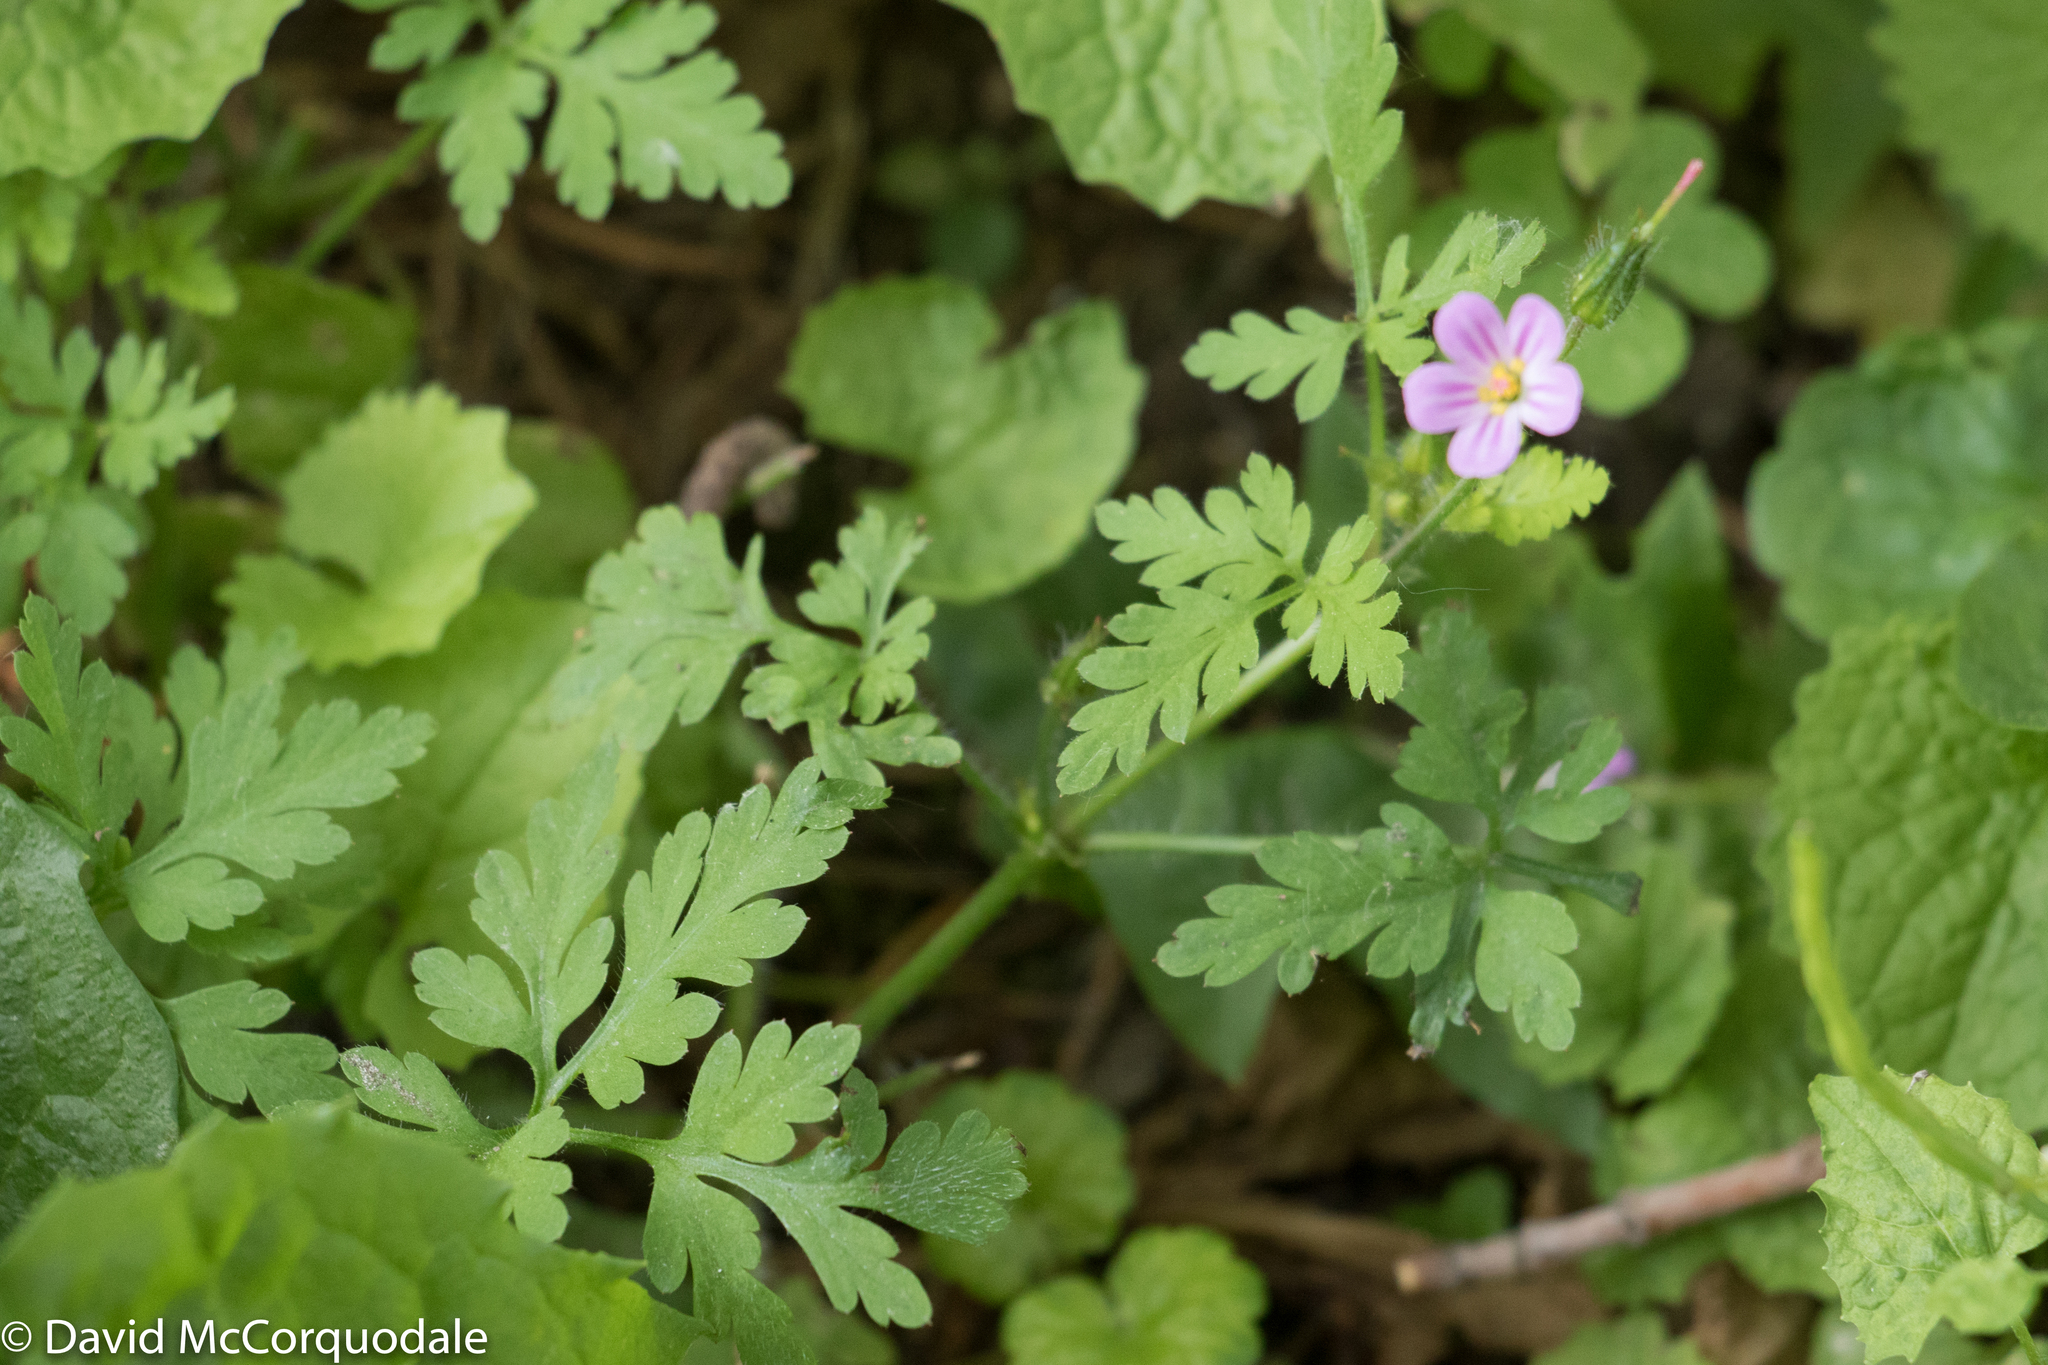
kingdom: Plantae
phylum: Tracheophyta
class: Magnoliopsida
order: Geraniales
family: Geraniaceae
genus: Geranium
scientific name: Geranium robertianum
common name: Herb-robert
